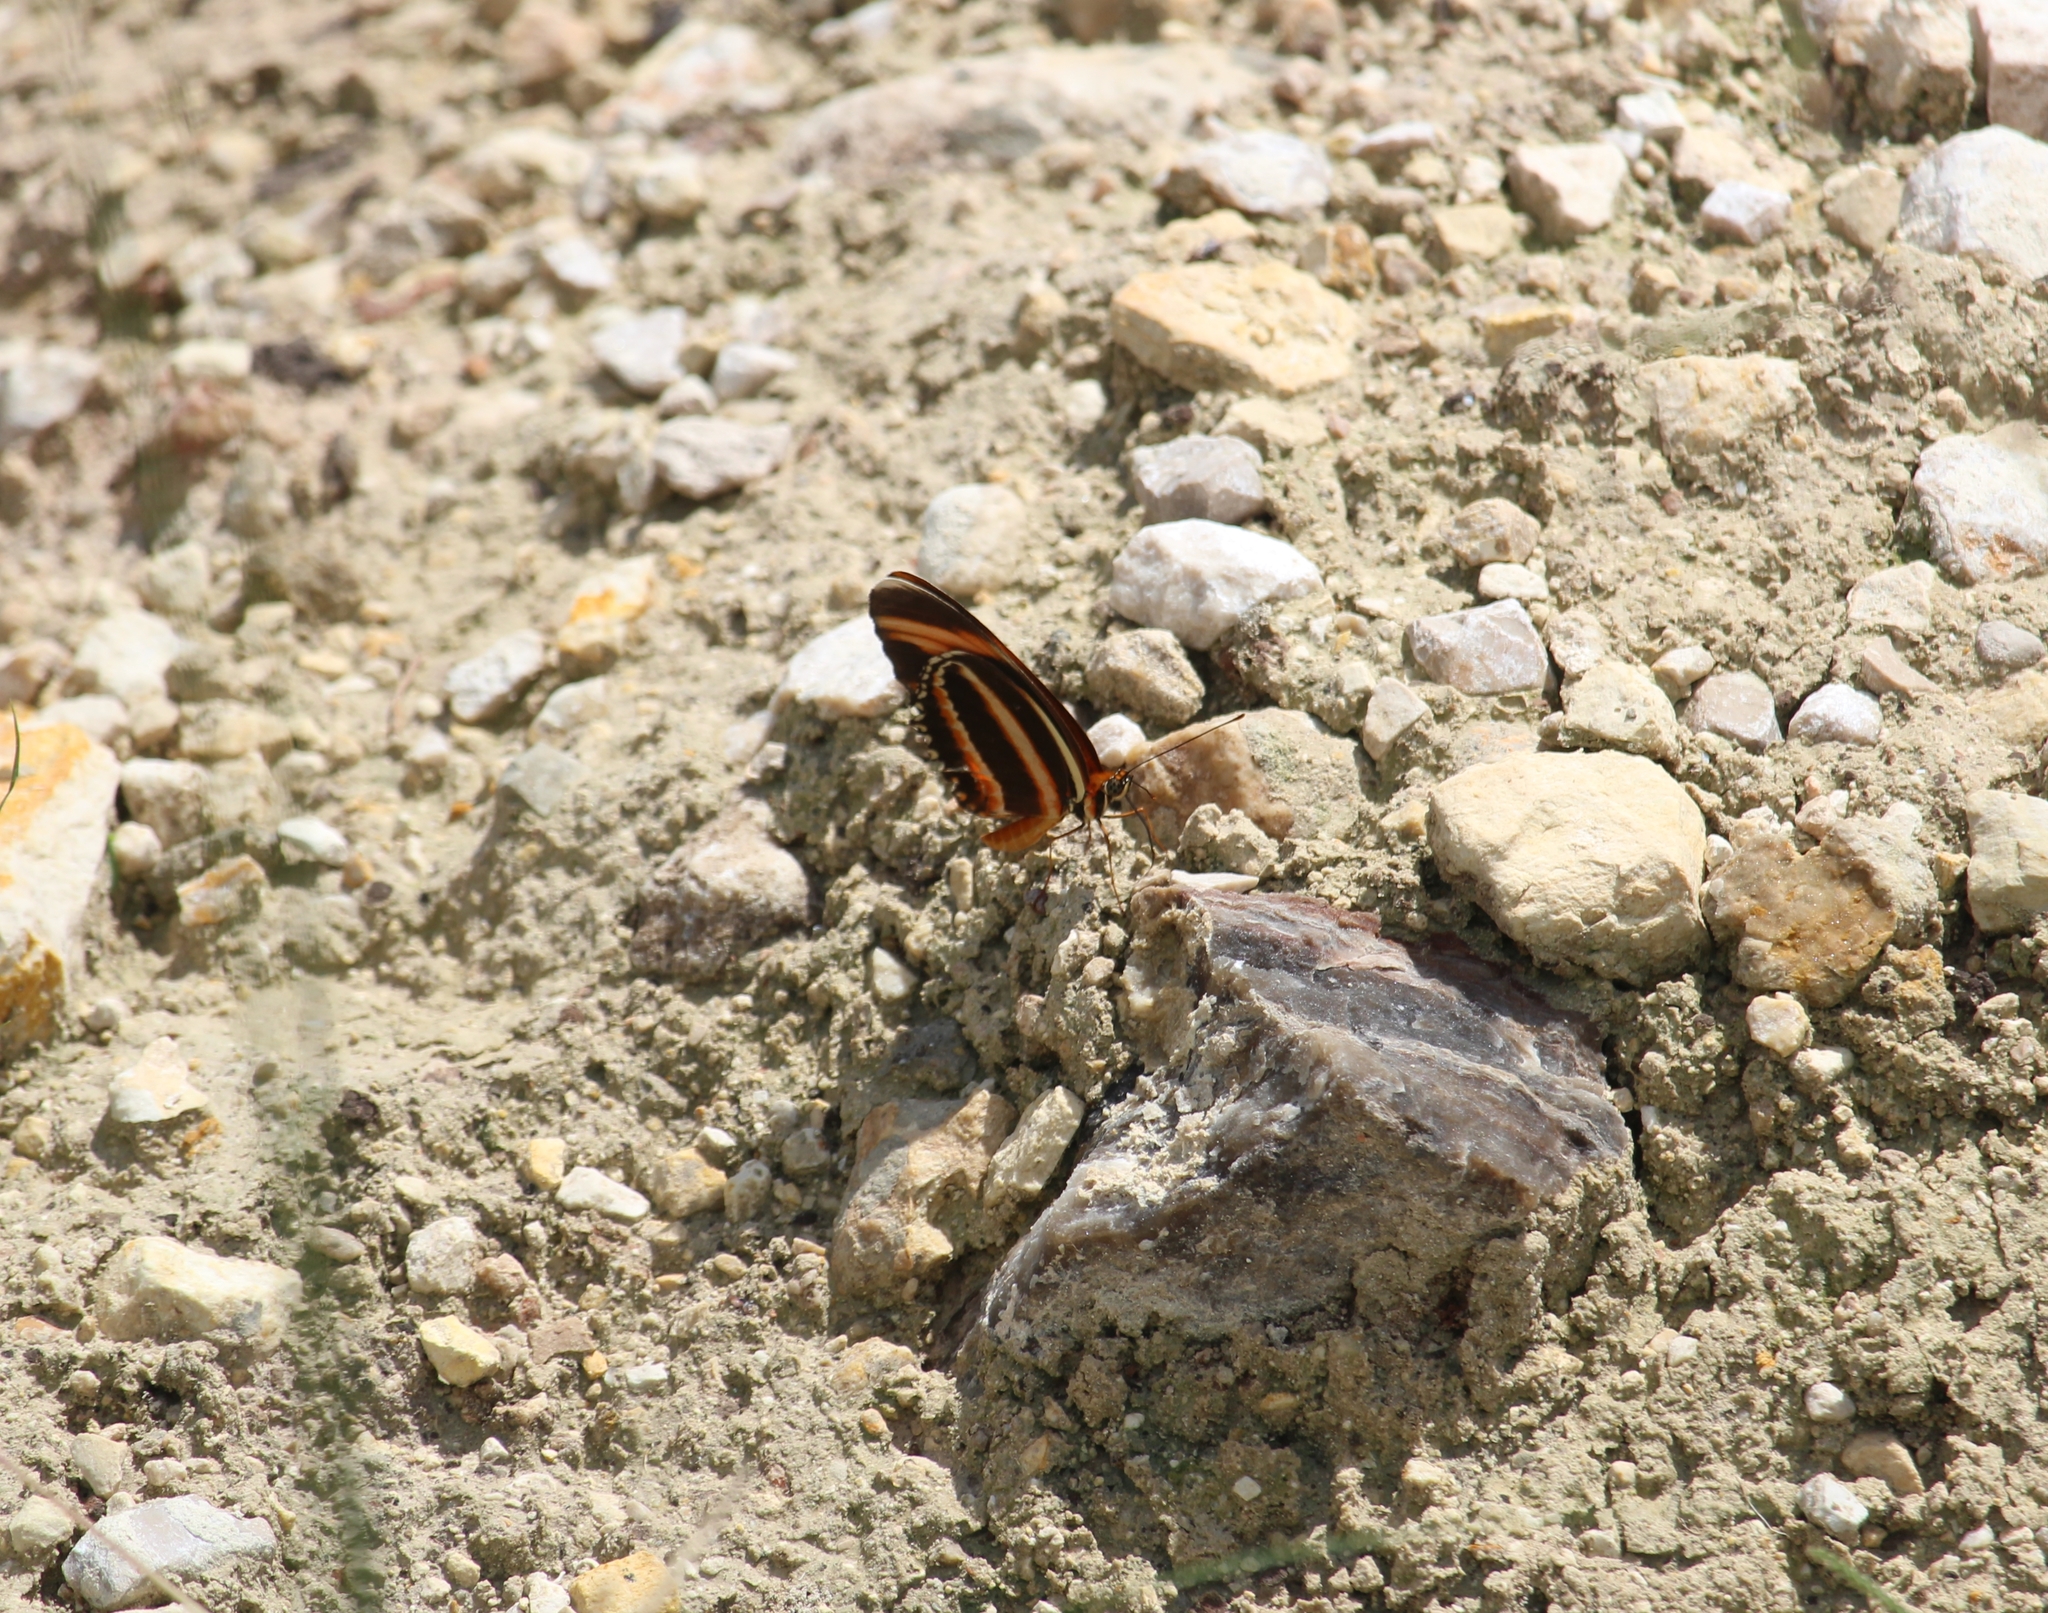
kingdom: Animalia
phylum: Arthropoda
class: Insecta
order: Lepidoptera
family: Nymphalidae
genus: Dryadula
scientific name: Dryadula phaetusa
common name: Banded orange heliconian
